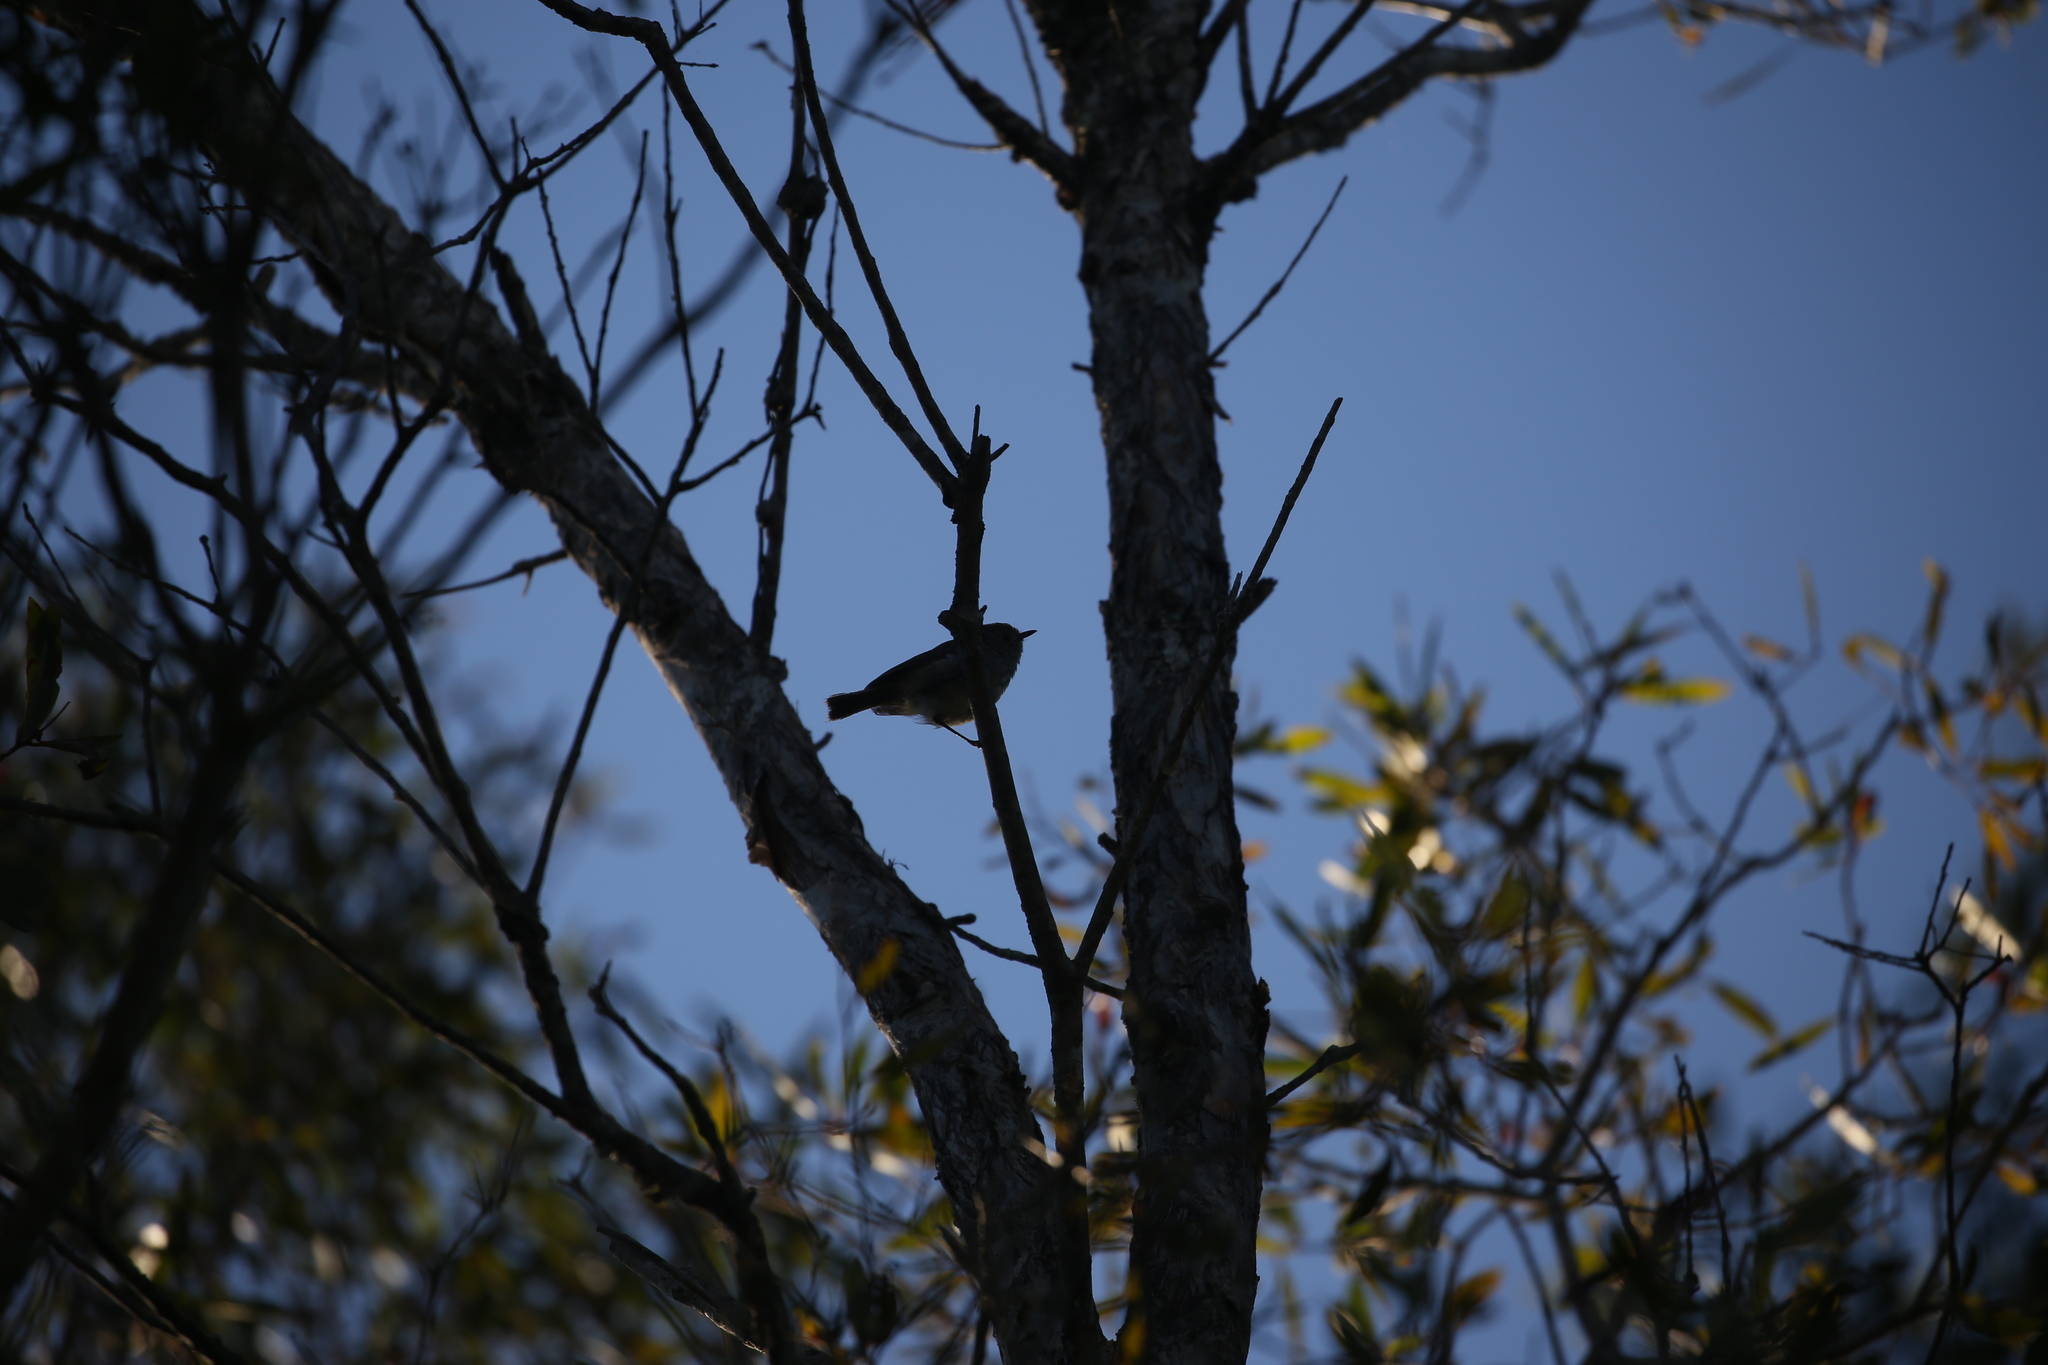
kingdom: Animalia
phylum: Chordata
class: Aves
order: Passeriformes
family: Acanthizidae
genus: Acanthiza
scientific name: Acanthiza pusilla
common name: Brown thornbill
